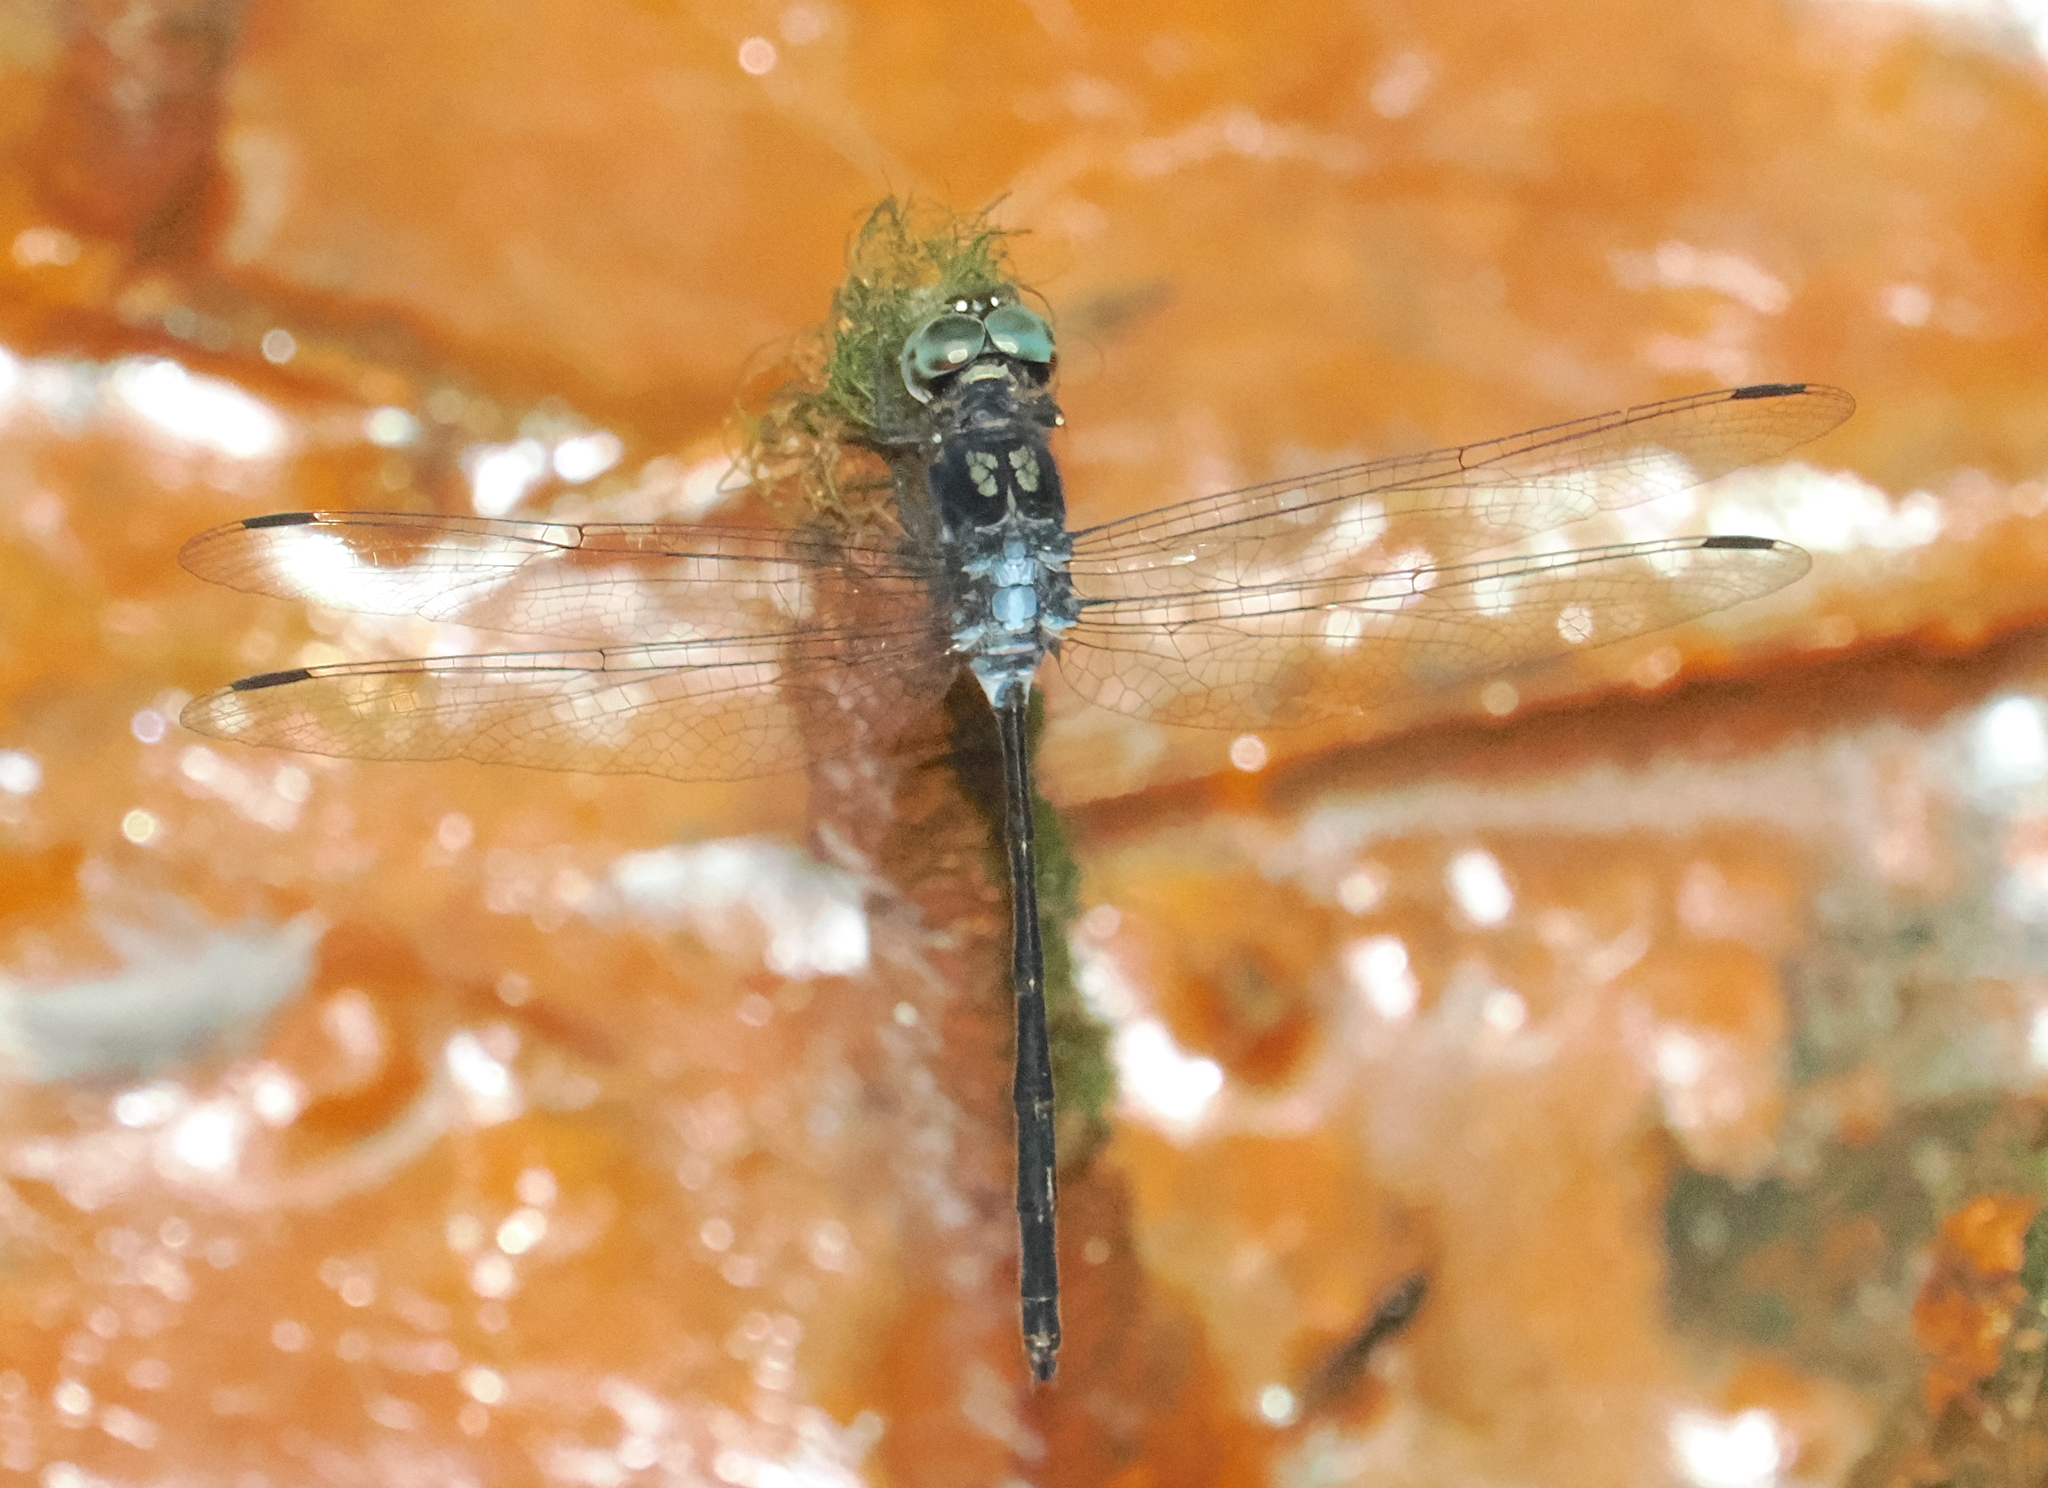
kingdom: Animalia
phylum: Arthropoda
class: Insecta
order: Odonata
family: Libellulidae
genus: Pornothemis
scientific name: Pornothemis starrei
